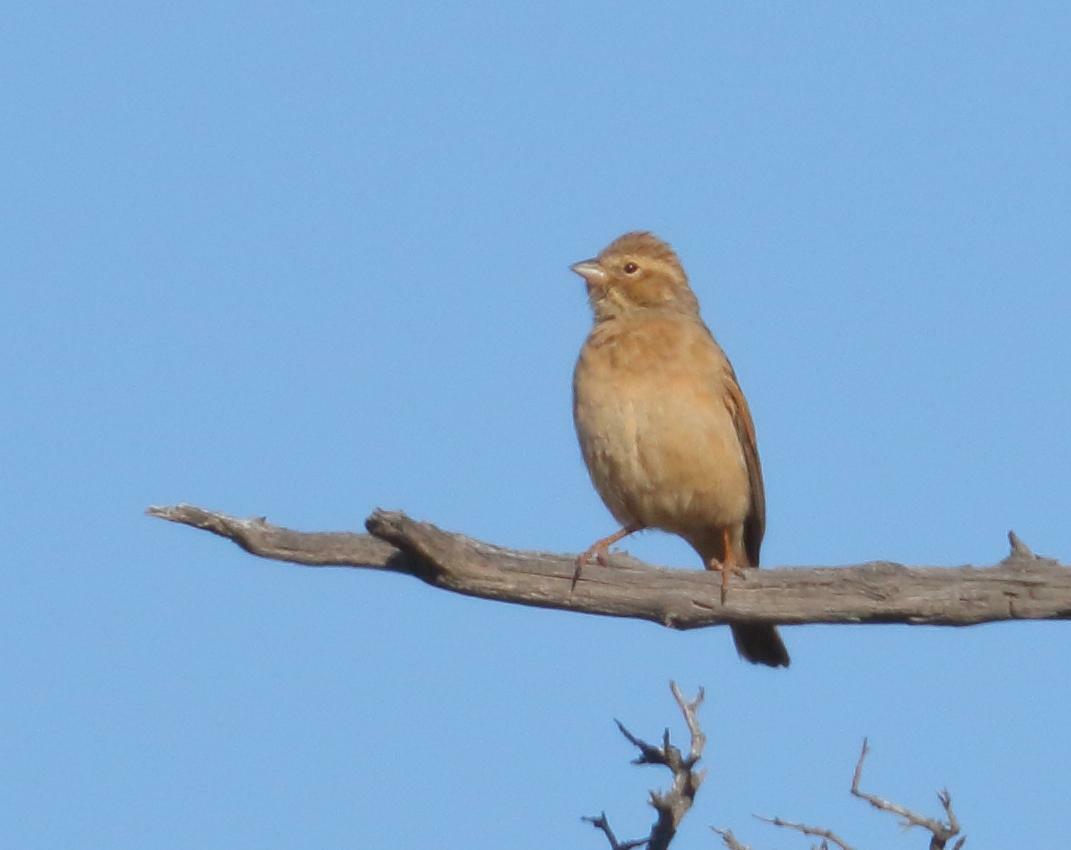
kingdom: Animalia
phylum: Chordata
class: Aves
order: Passeriformes
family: Emberizidae
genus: Emberiza
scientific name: Emberiza impetuani
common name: Lark-like bunting
